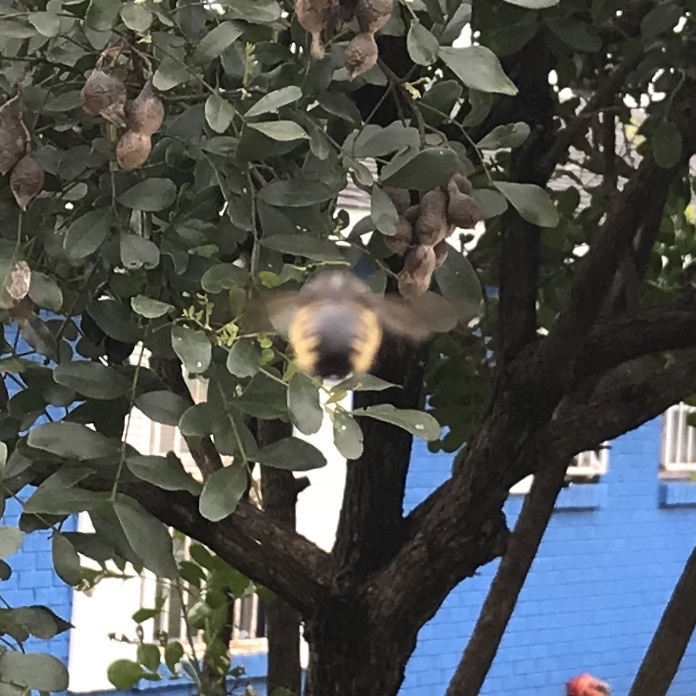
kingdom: Animalia
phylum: Arthropoda
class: Insecta
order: Hymenoptera
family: Apidae
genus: Xylocopa
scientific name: Xylocopa tabaniformis
